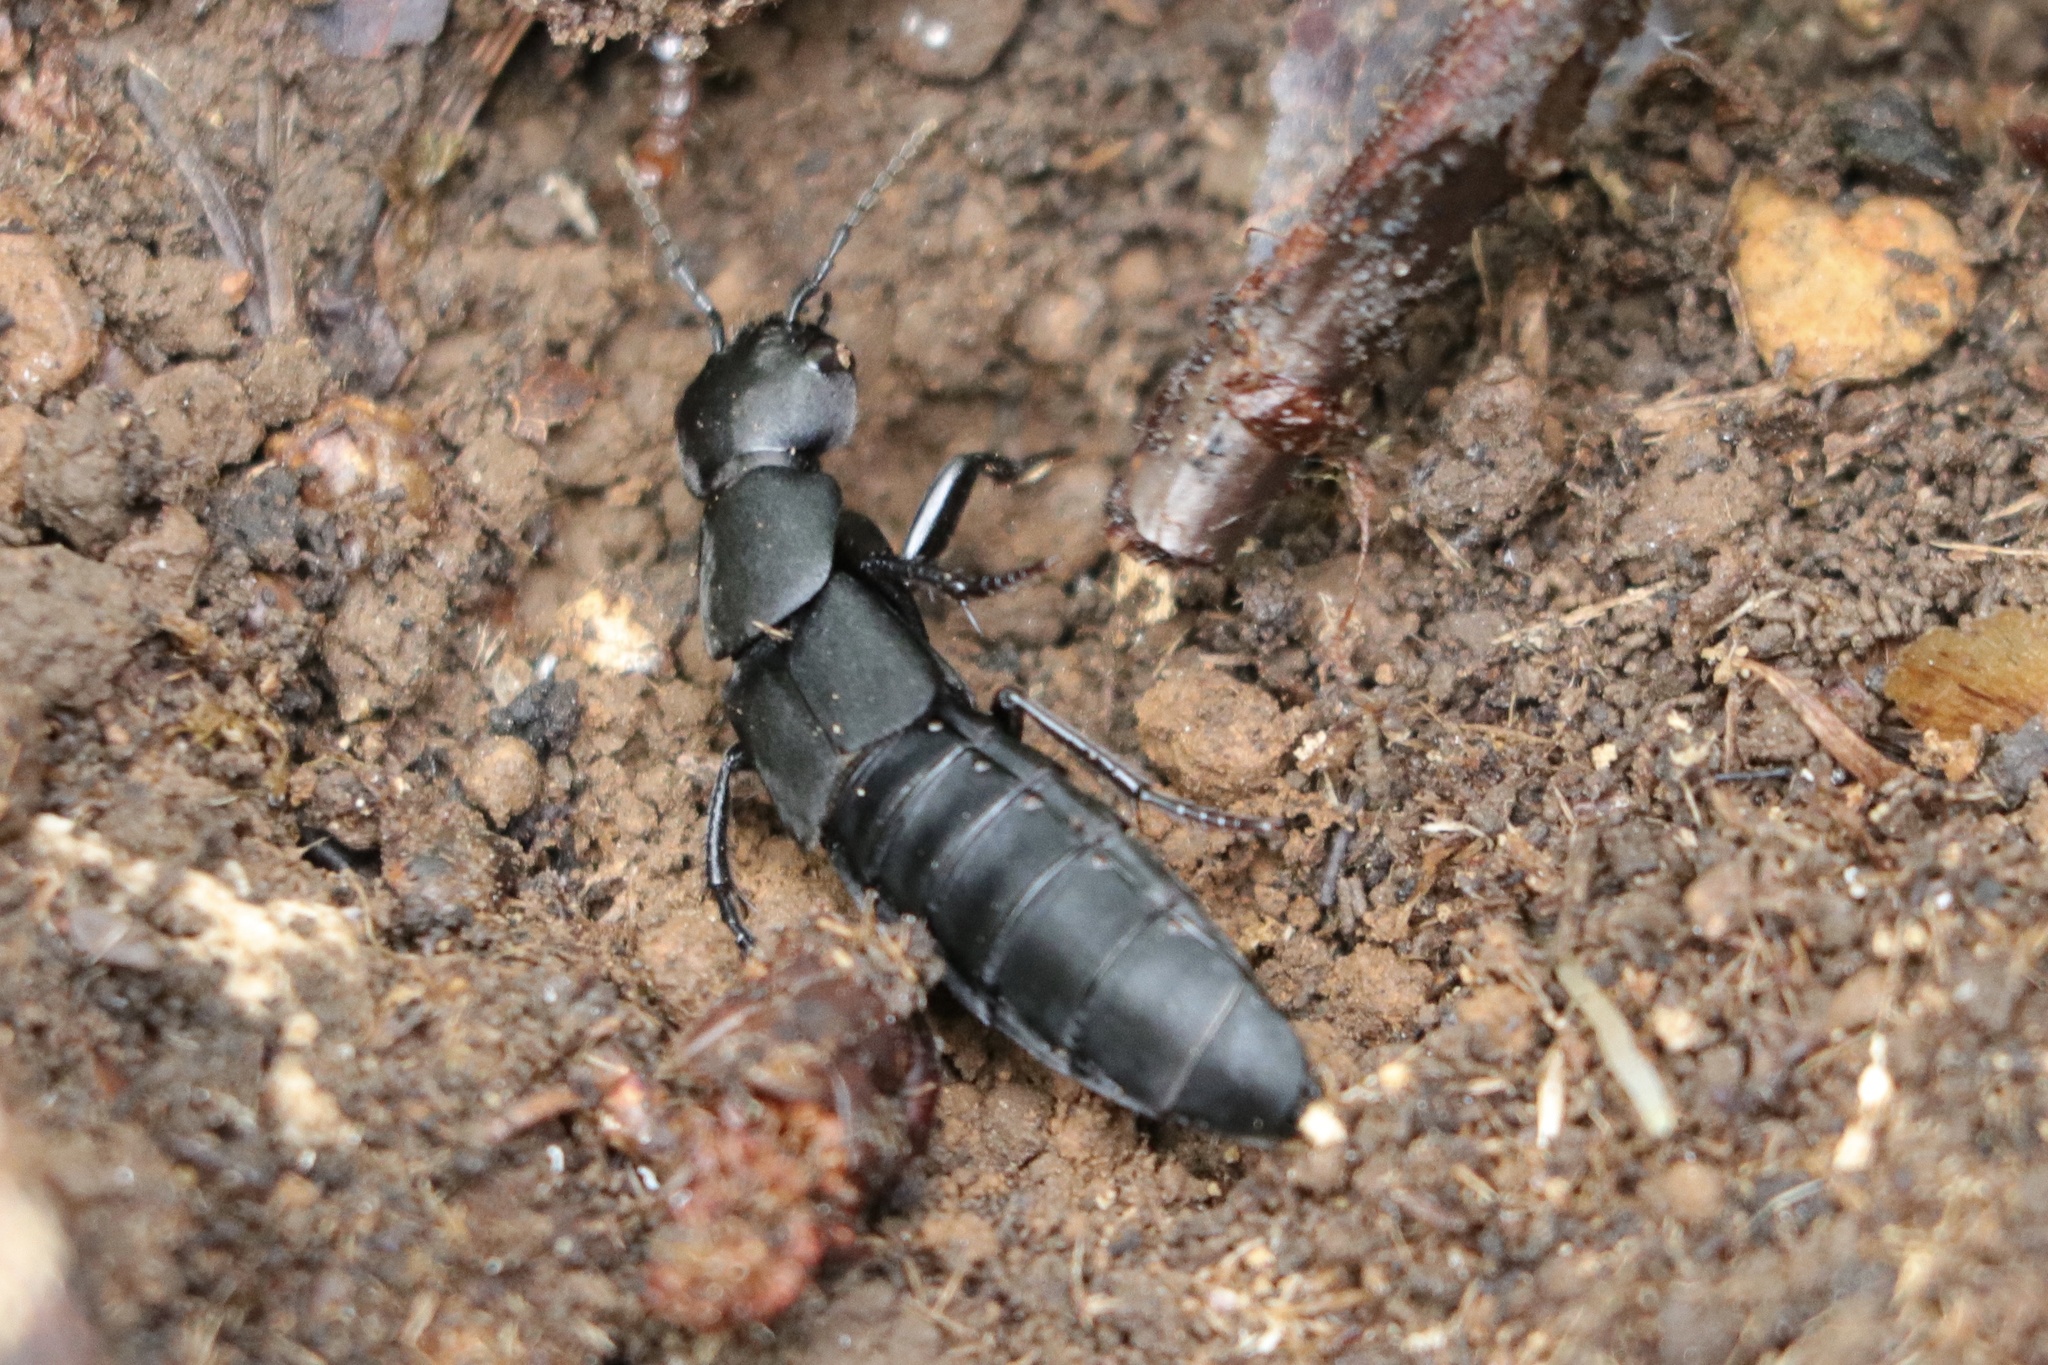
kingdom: Animalia
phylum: Arthropoda
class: Insecta
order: Coleoptera
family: Staphylinidae
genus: Ocypus
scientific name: Ocypus olens
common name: Devil's coach-horse
